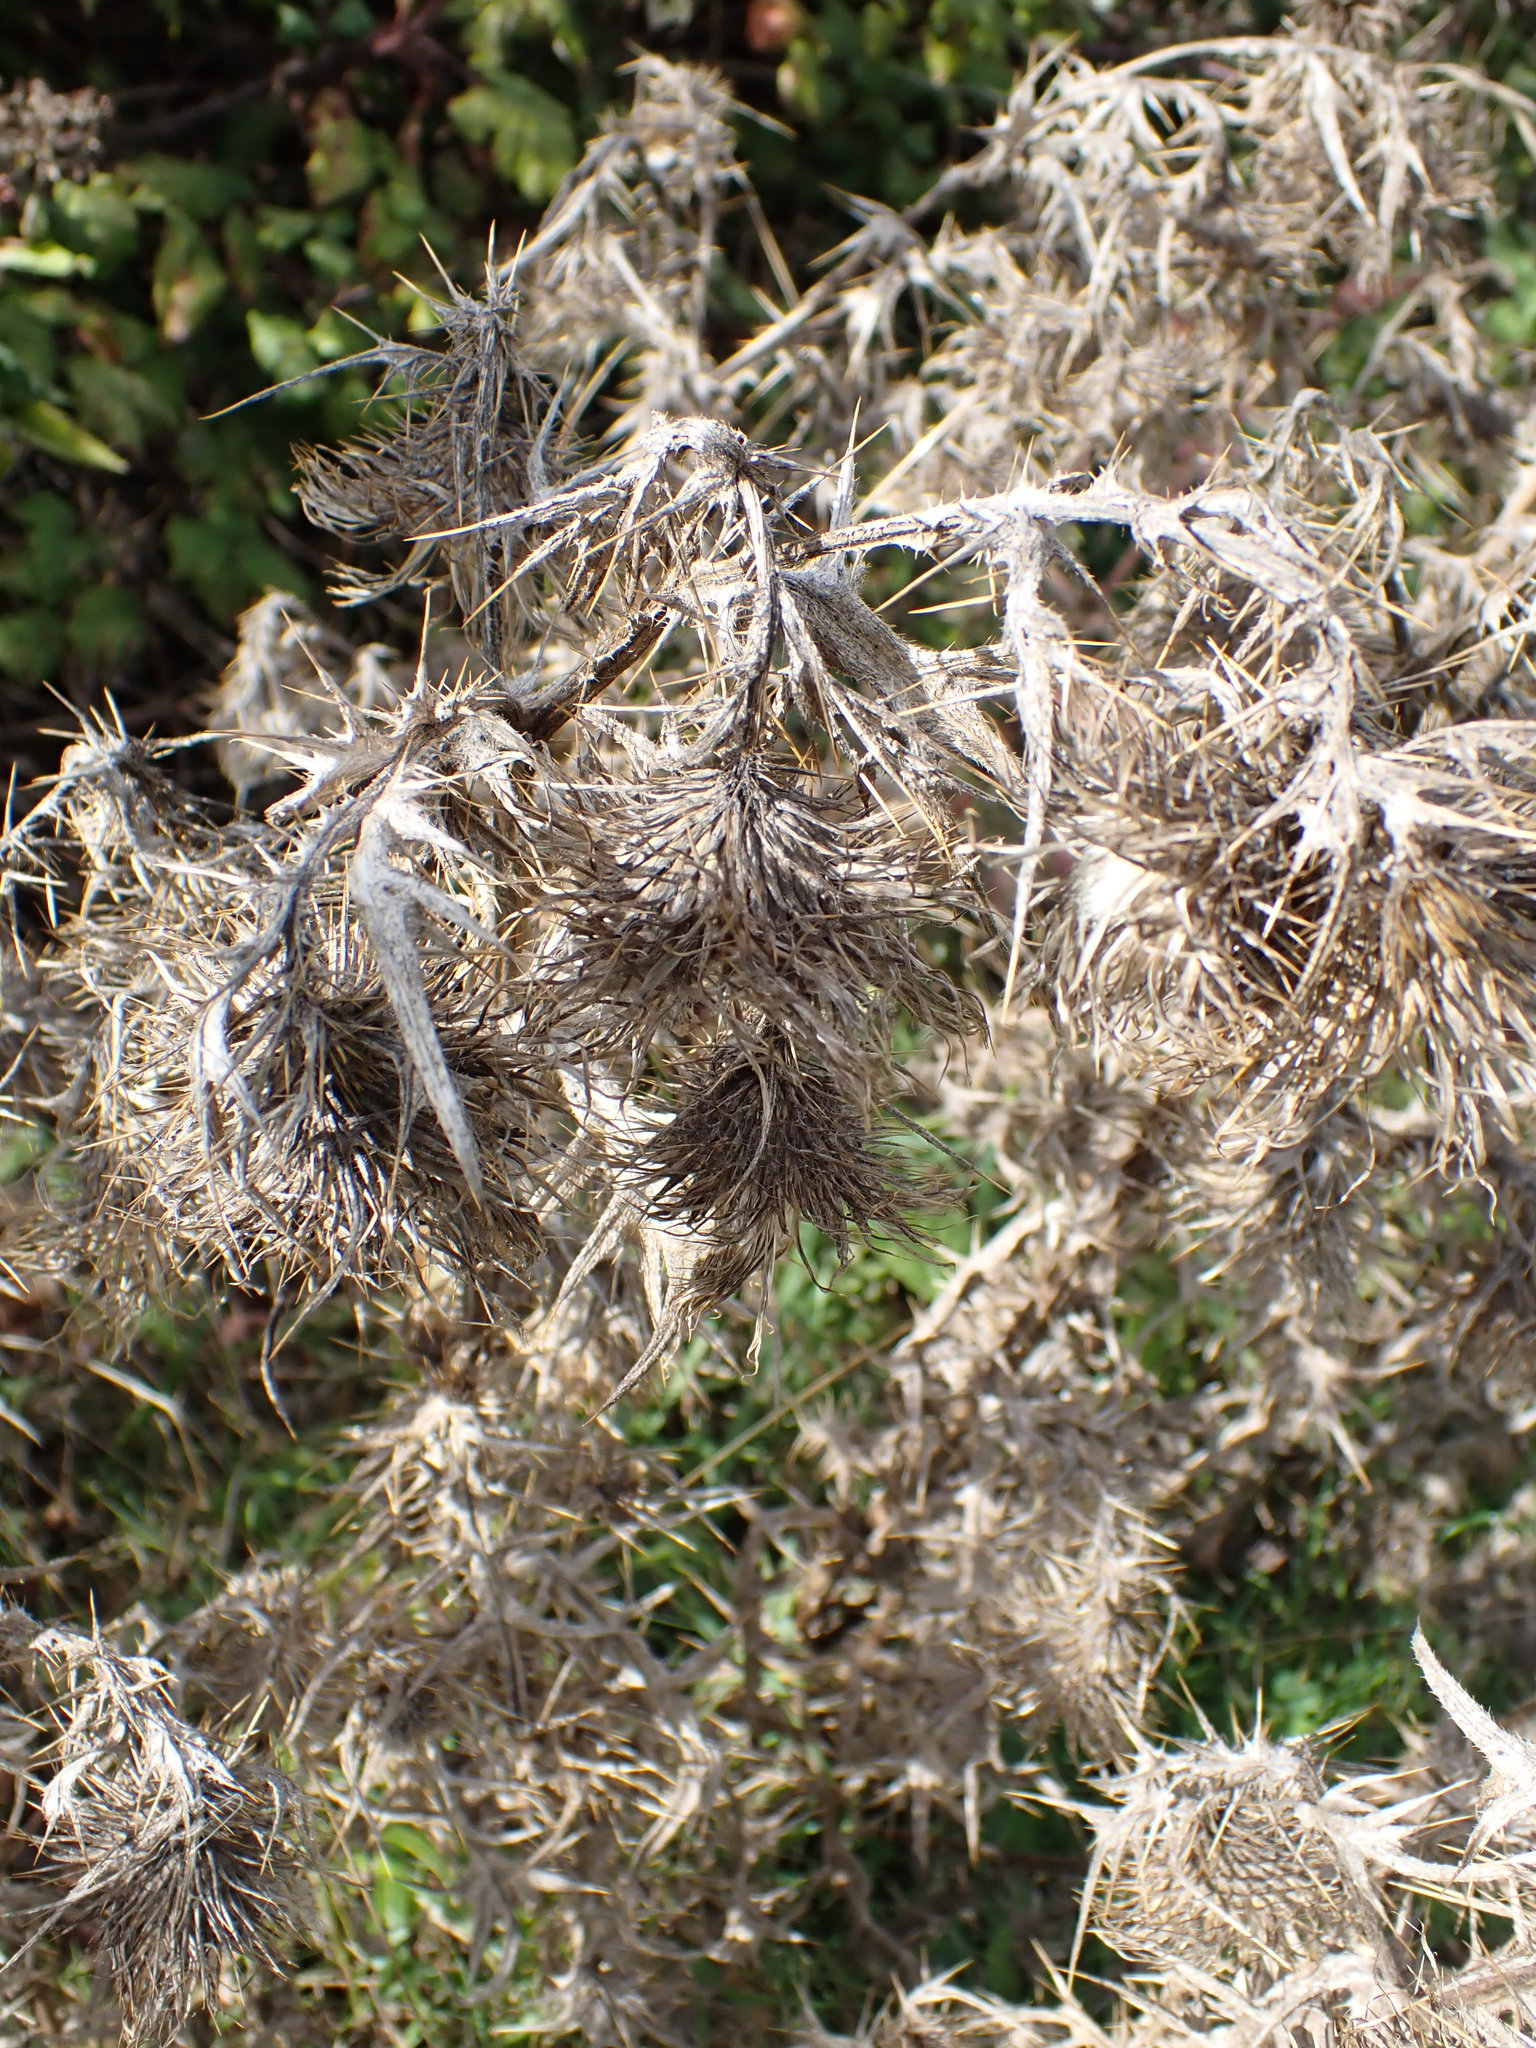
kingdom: Plantae
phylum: Tracheophyta
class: Magnoliopsida
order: Asterales
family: Asteraceae
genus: Cirsium
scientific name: Cirsium vulgare
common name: Bull thistle
